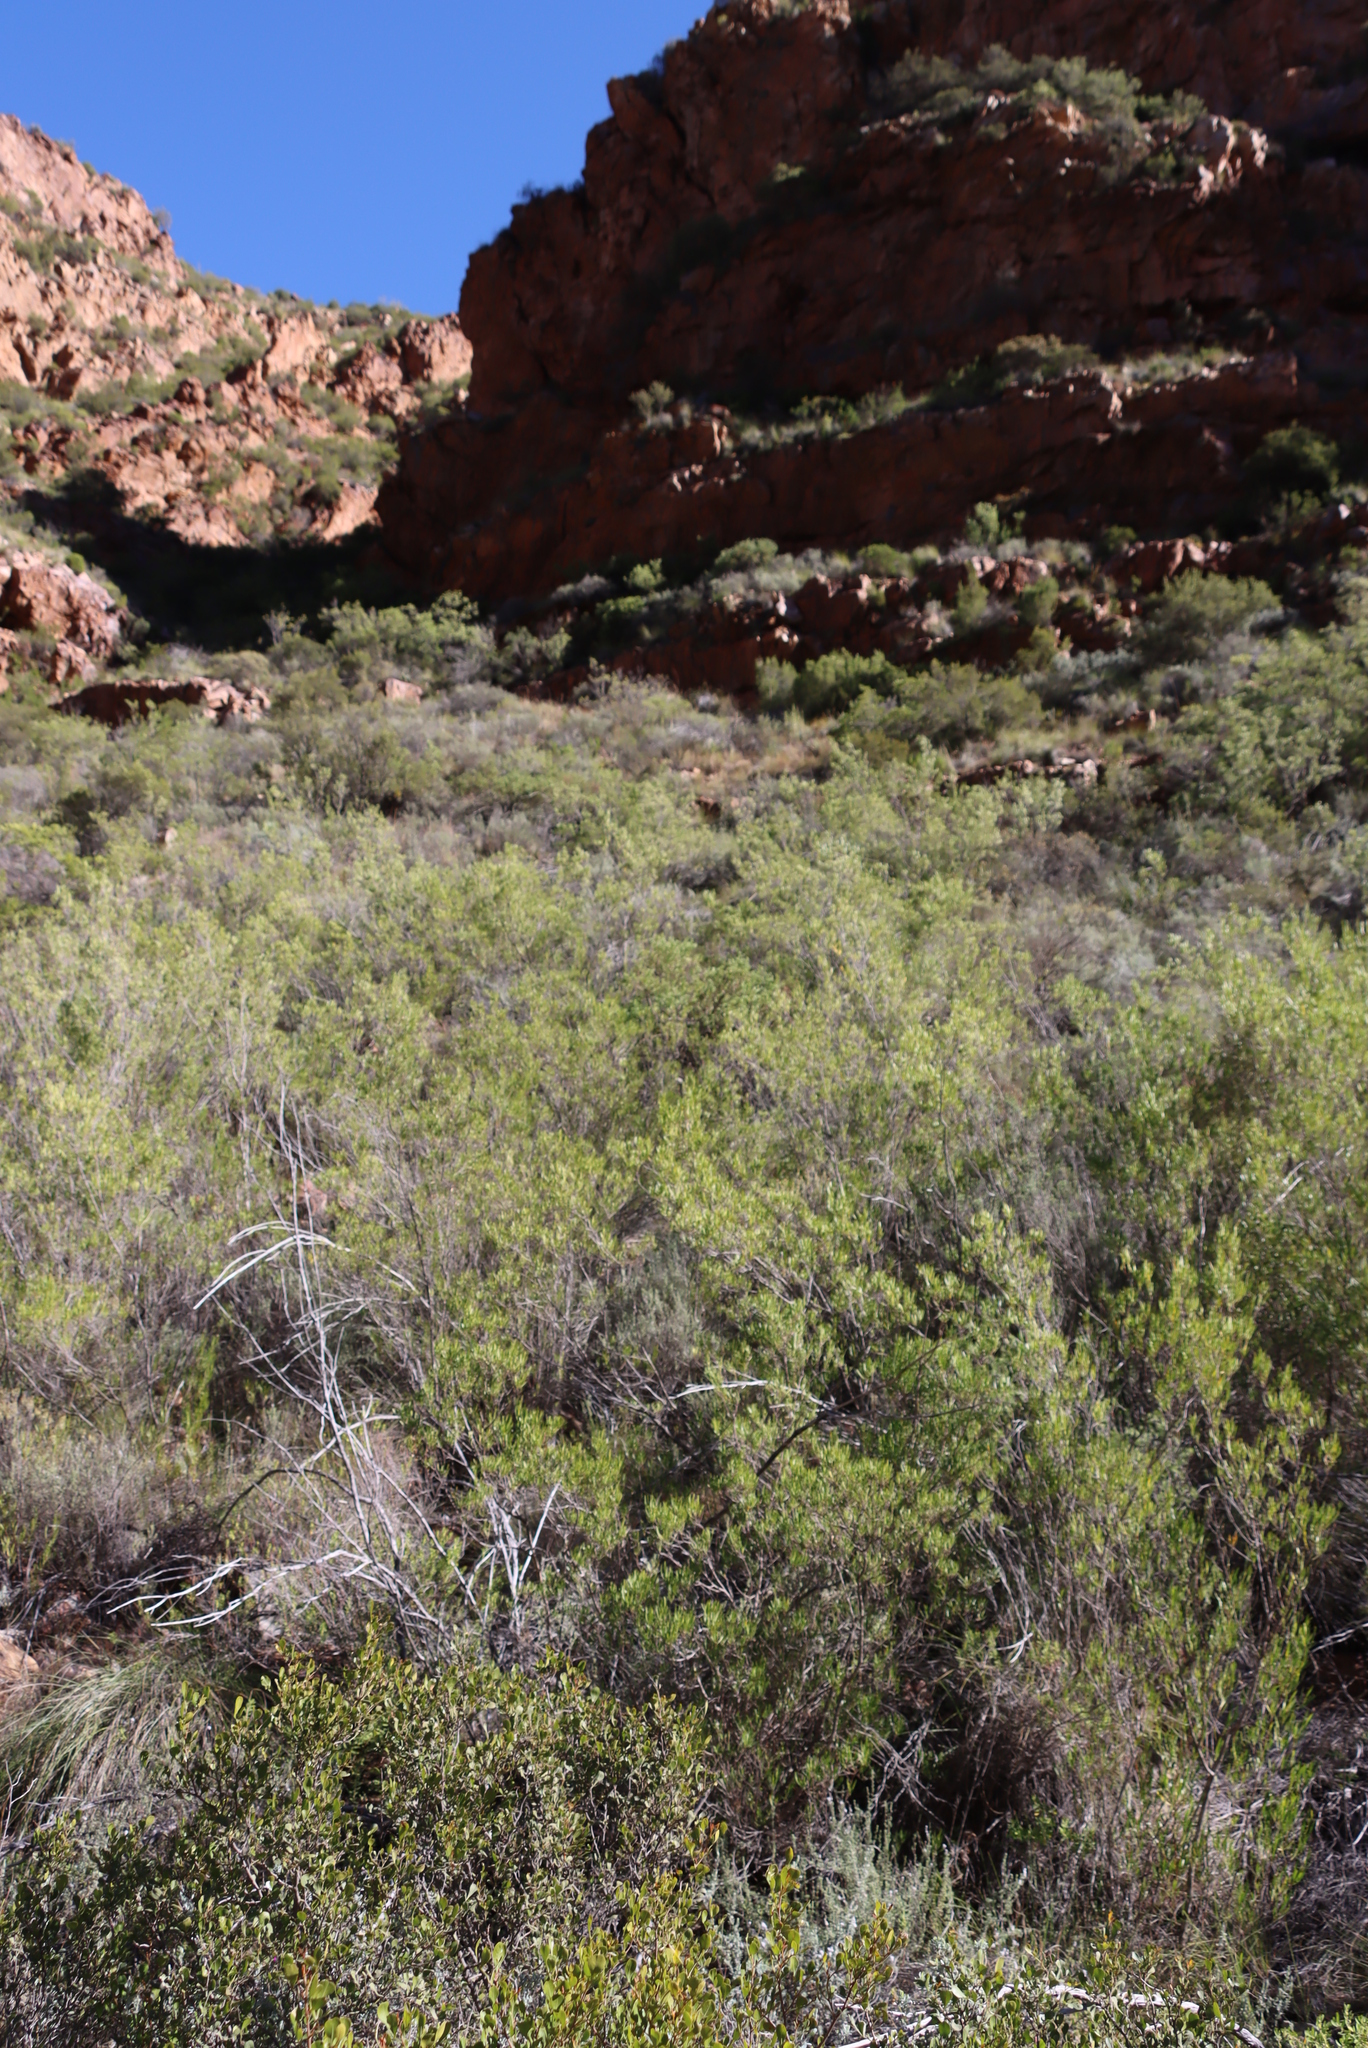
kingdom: Plantae
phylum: Tracheophyta
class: Magnoliopsida
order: Sapindales
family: Sapindaceae
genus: Dodonaea
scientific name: Dodonaea viscosa
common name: Hopbush
